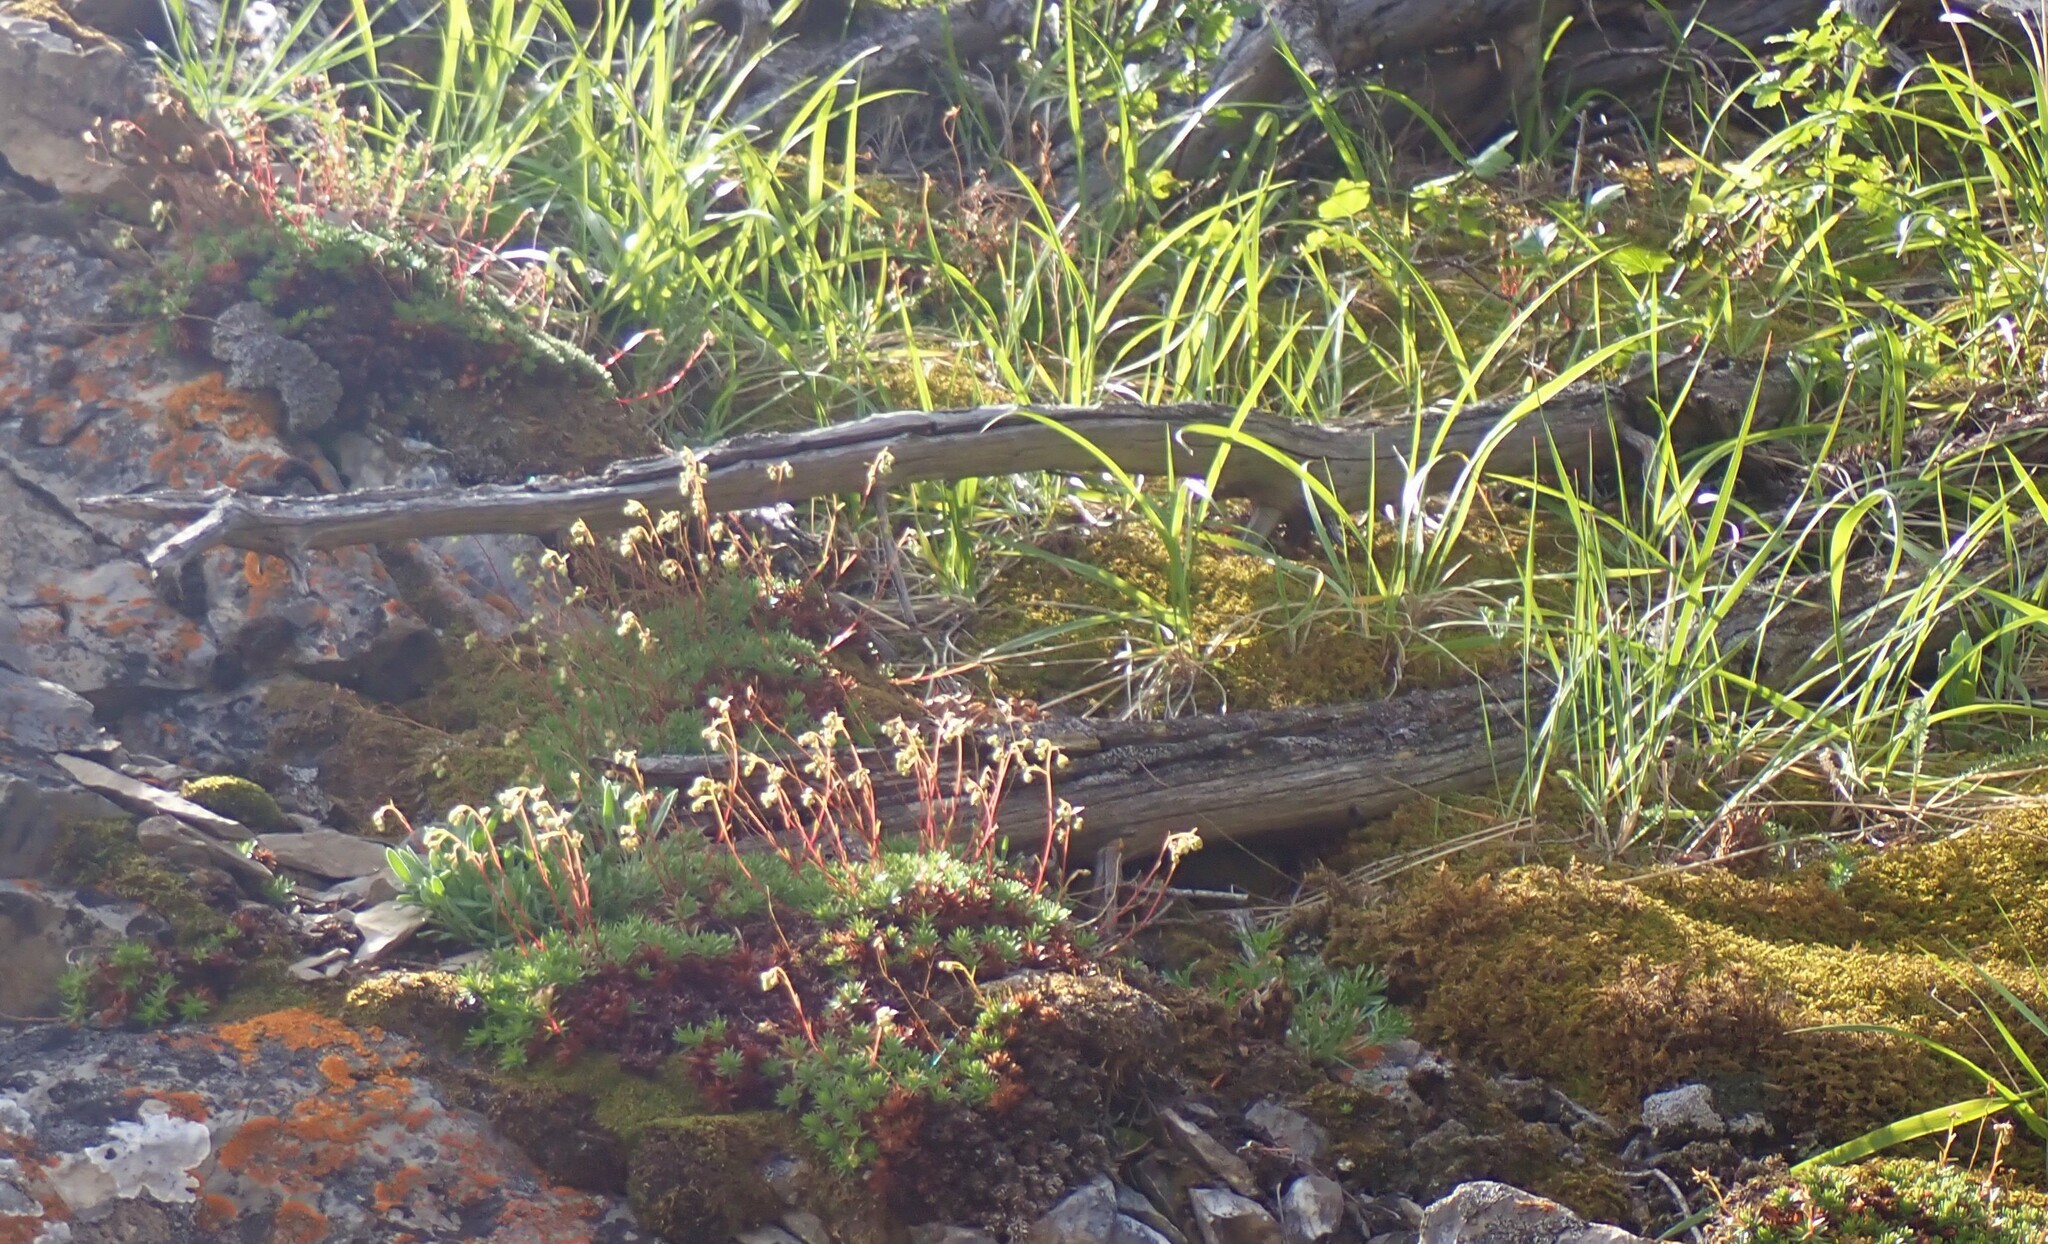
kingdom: Plantae
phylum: Tracheophyta
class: Magnoliopsida
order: Saxifragales
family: Saxifragaceae
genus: Saxifraga
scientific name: Saxifraga bronchialis
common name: Matted saxifrage
